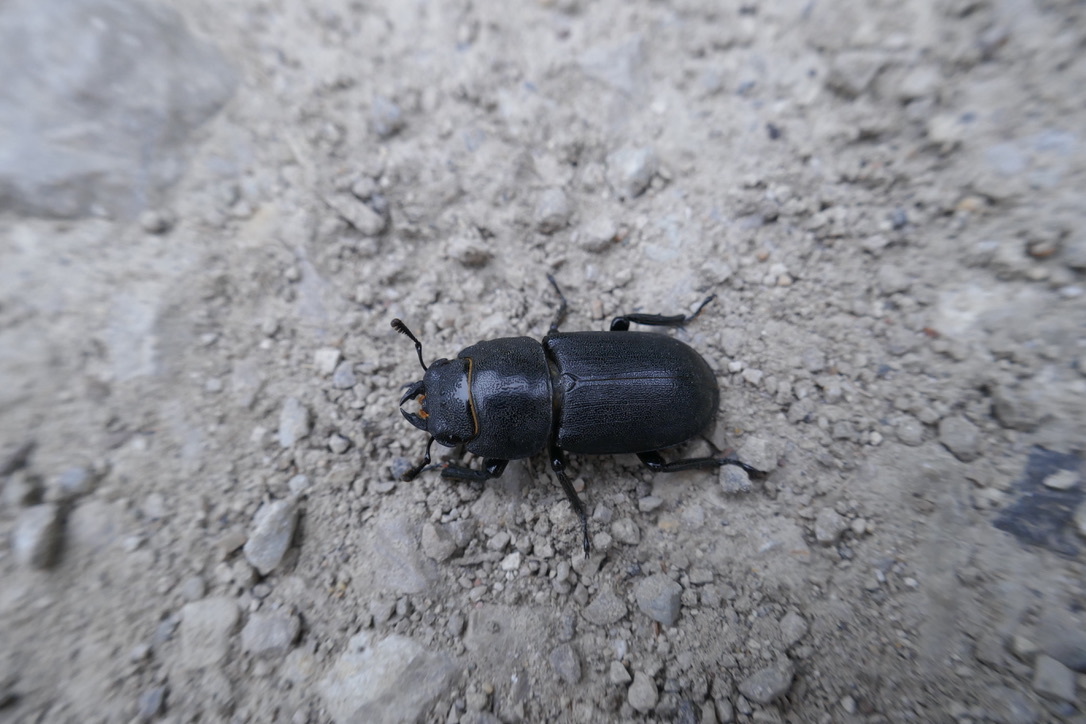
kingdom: Animalia
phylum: Arthropoda
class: Insecta
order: Coleoptera
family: Lucanidae
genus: Dorcus
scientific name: Dorcus parallelipipedus
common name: Lesser stag beetle
